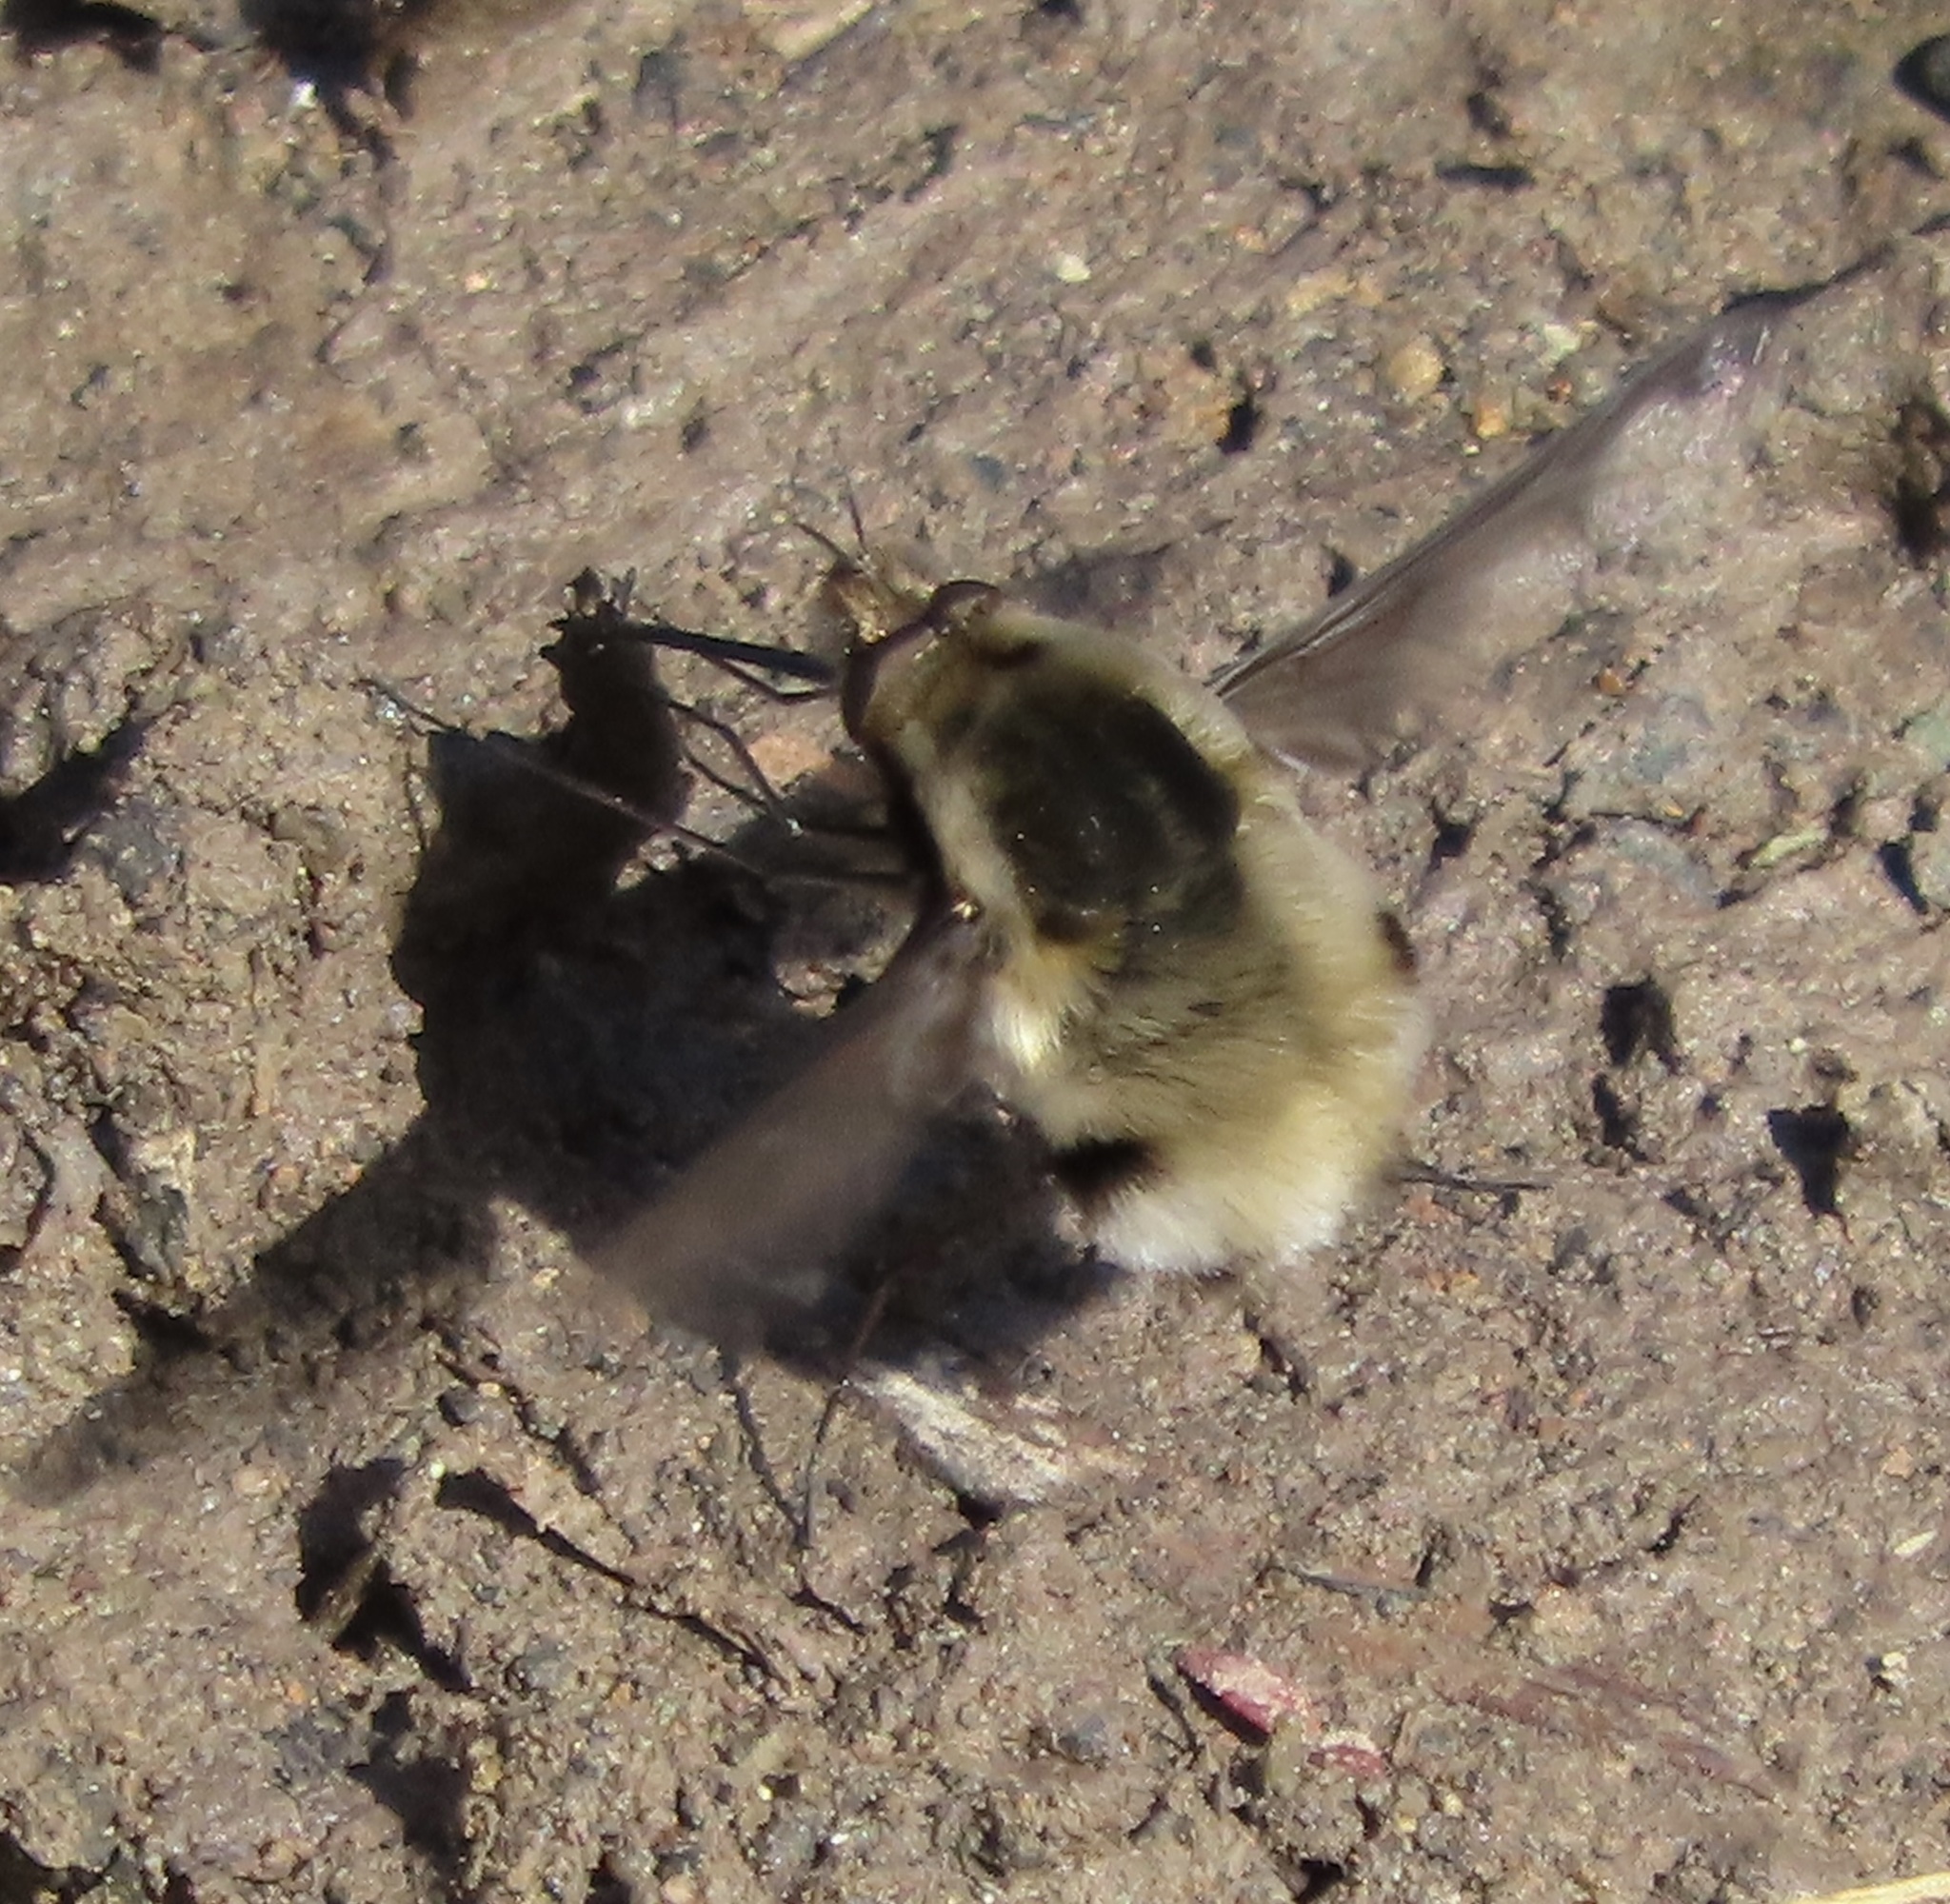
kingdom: Animalia
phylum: Arthropoda
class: Insecta
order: Diptera
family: Bombyliidae
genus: Bombylius
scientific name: Bombylius major
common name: Bee fly
